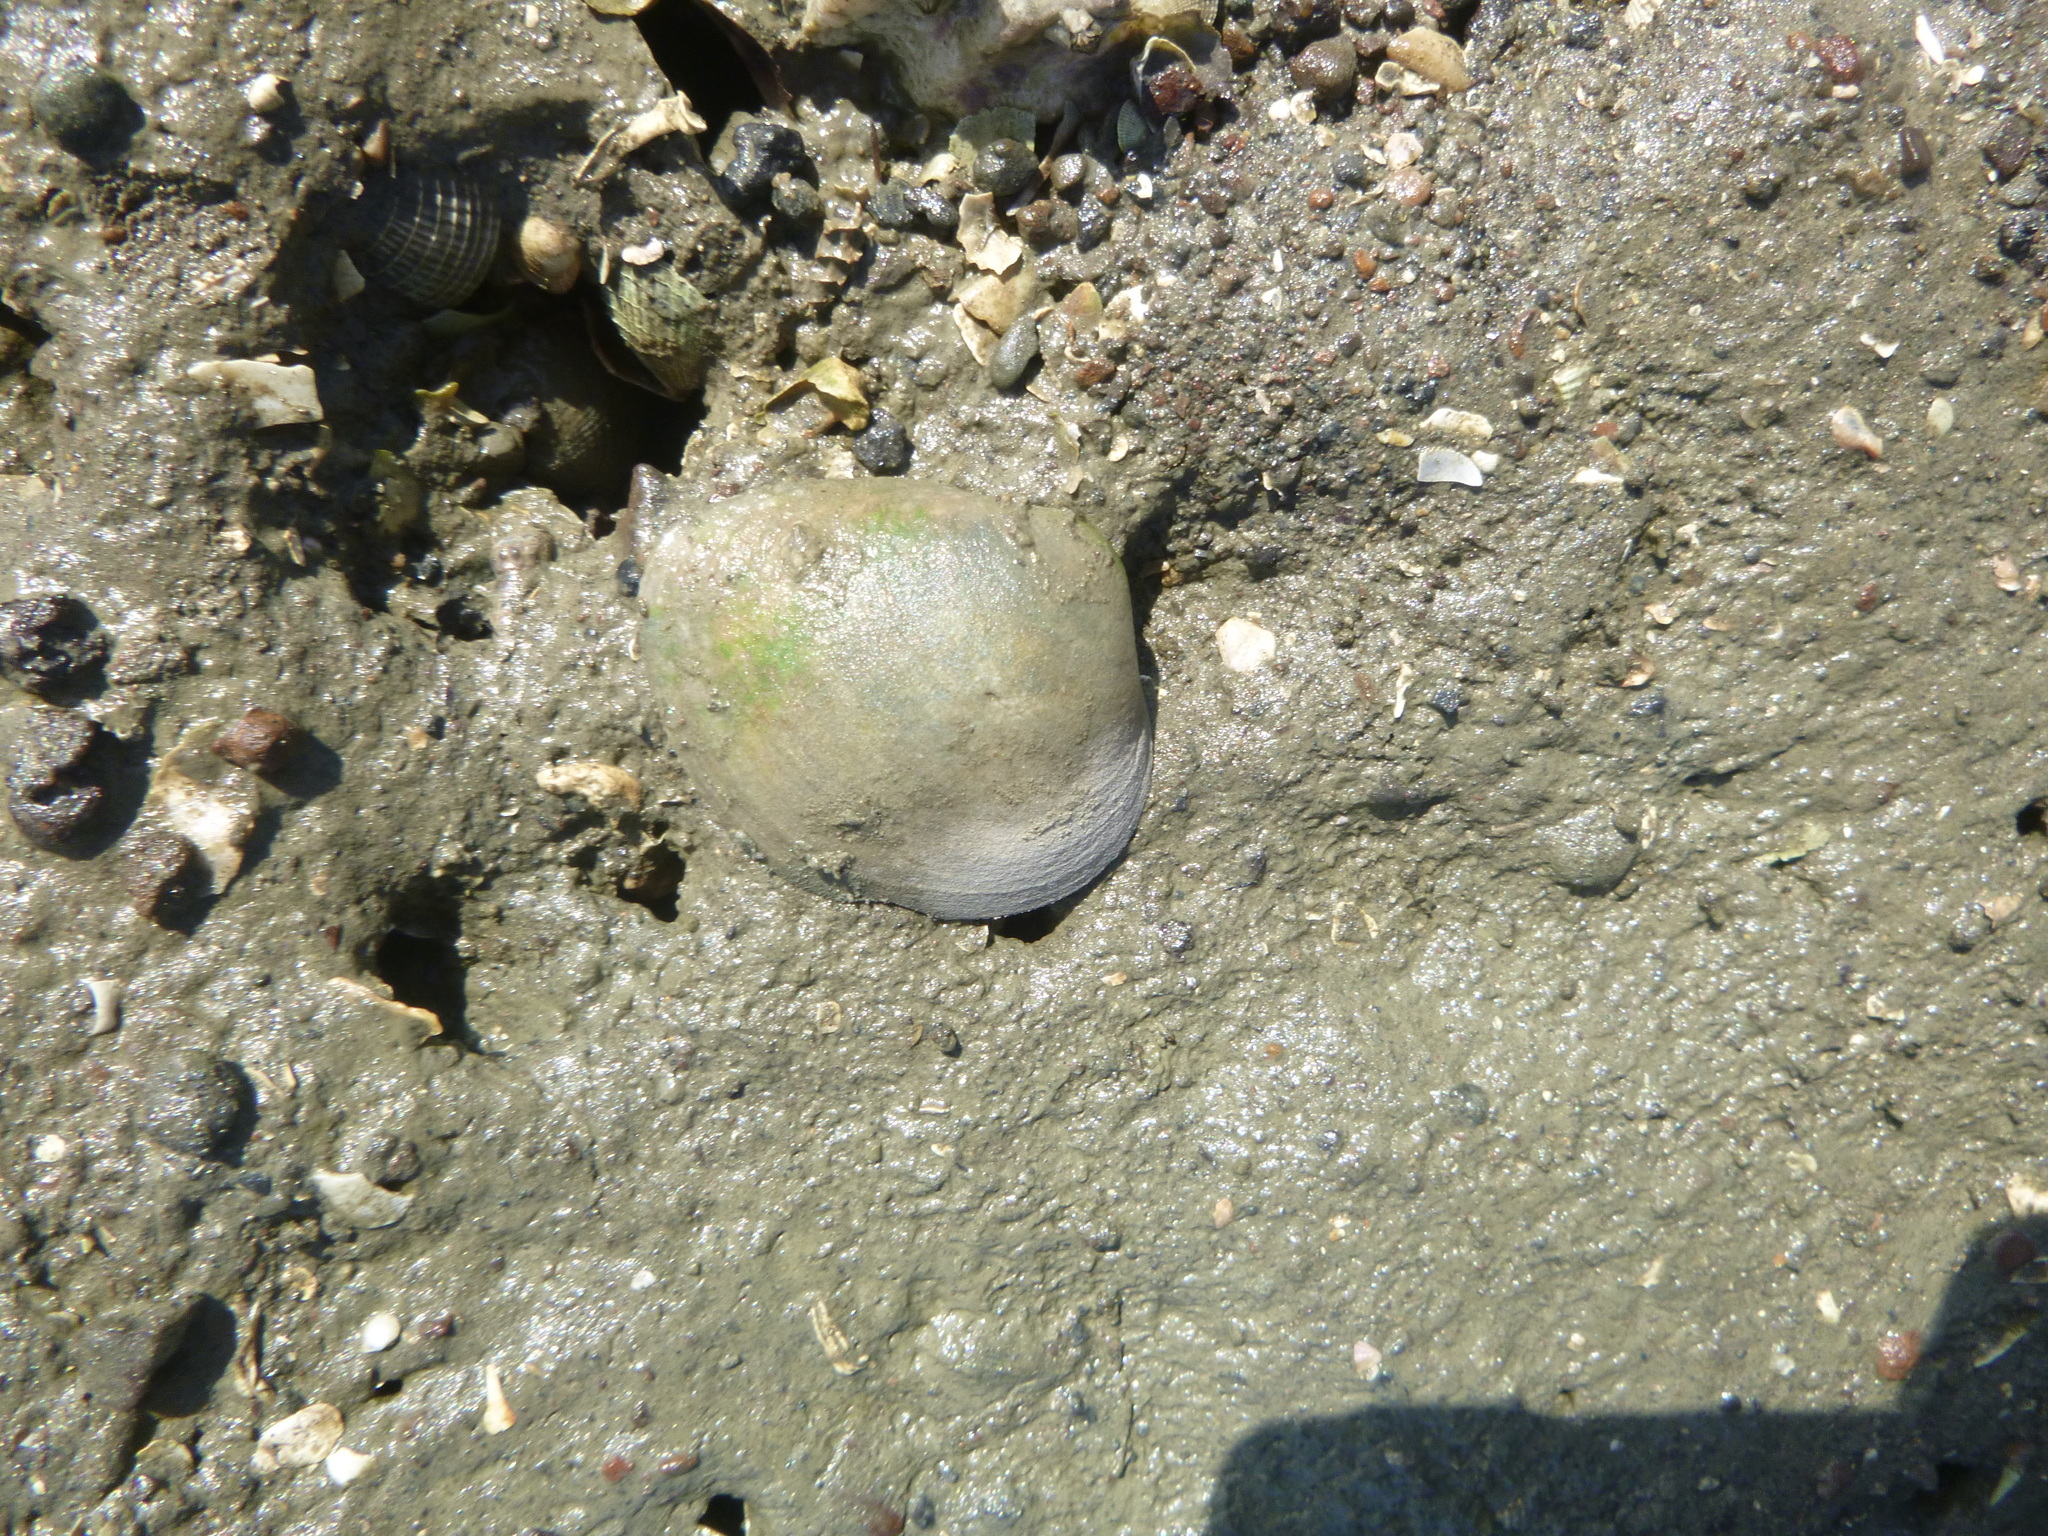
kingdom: Animalia
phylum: Mollusca
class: Bivalvia
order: Venerida
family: Mactridae
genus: Cyclomactra
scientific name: Cyclomactra ovata
